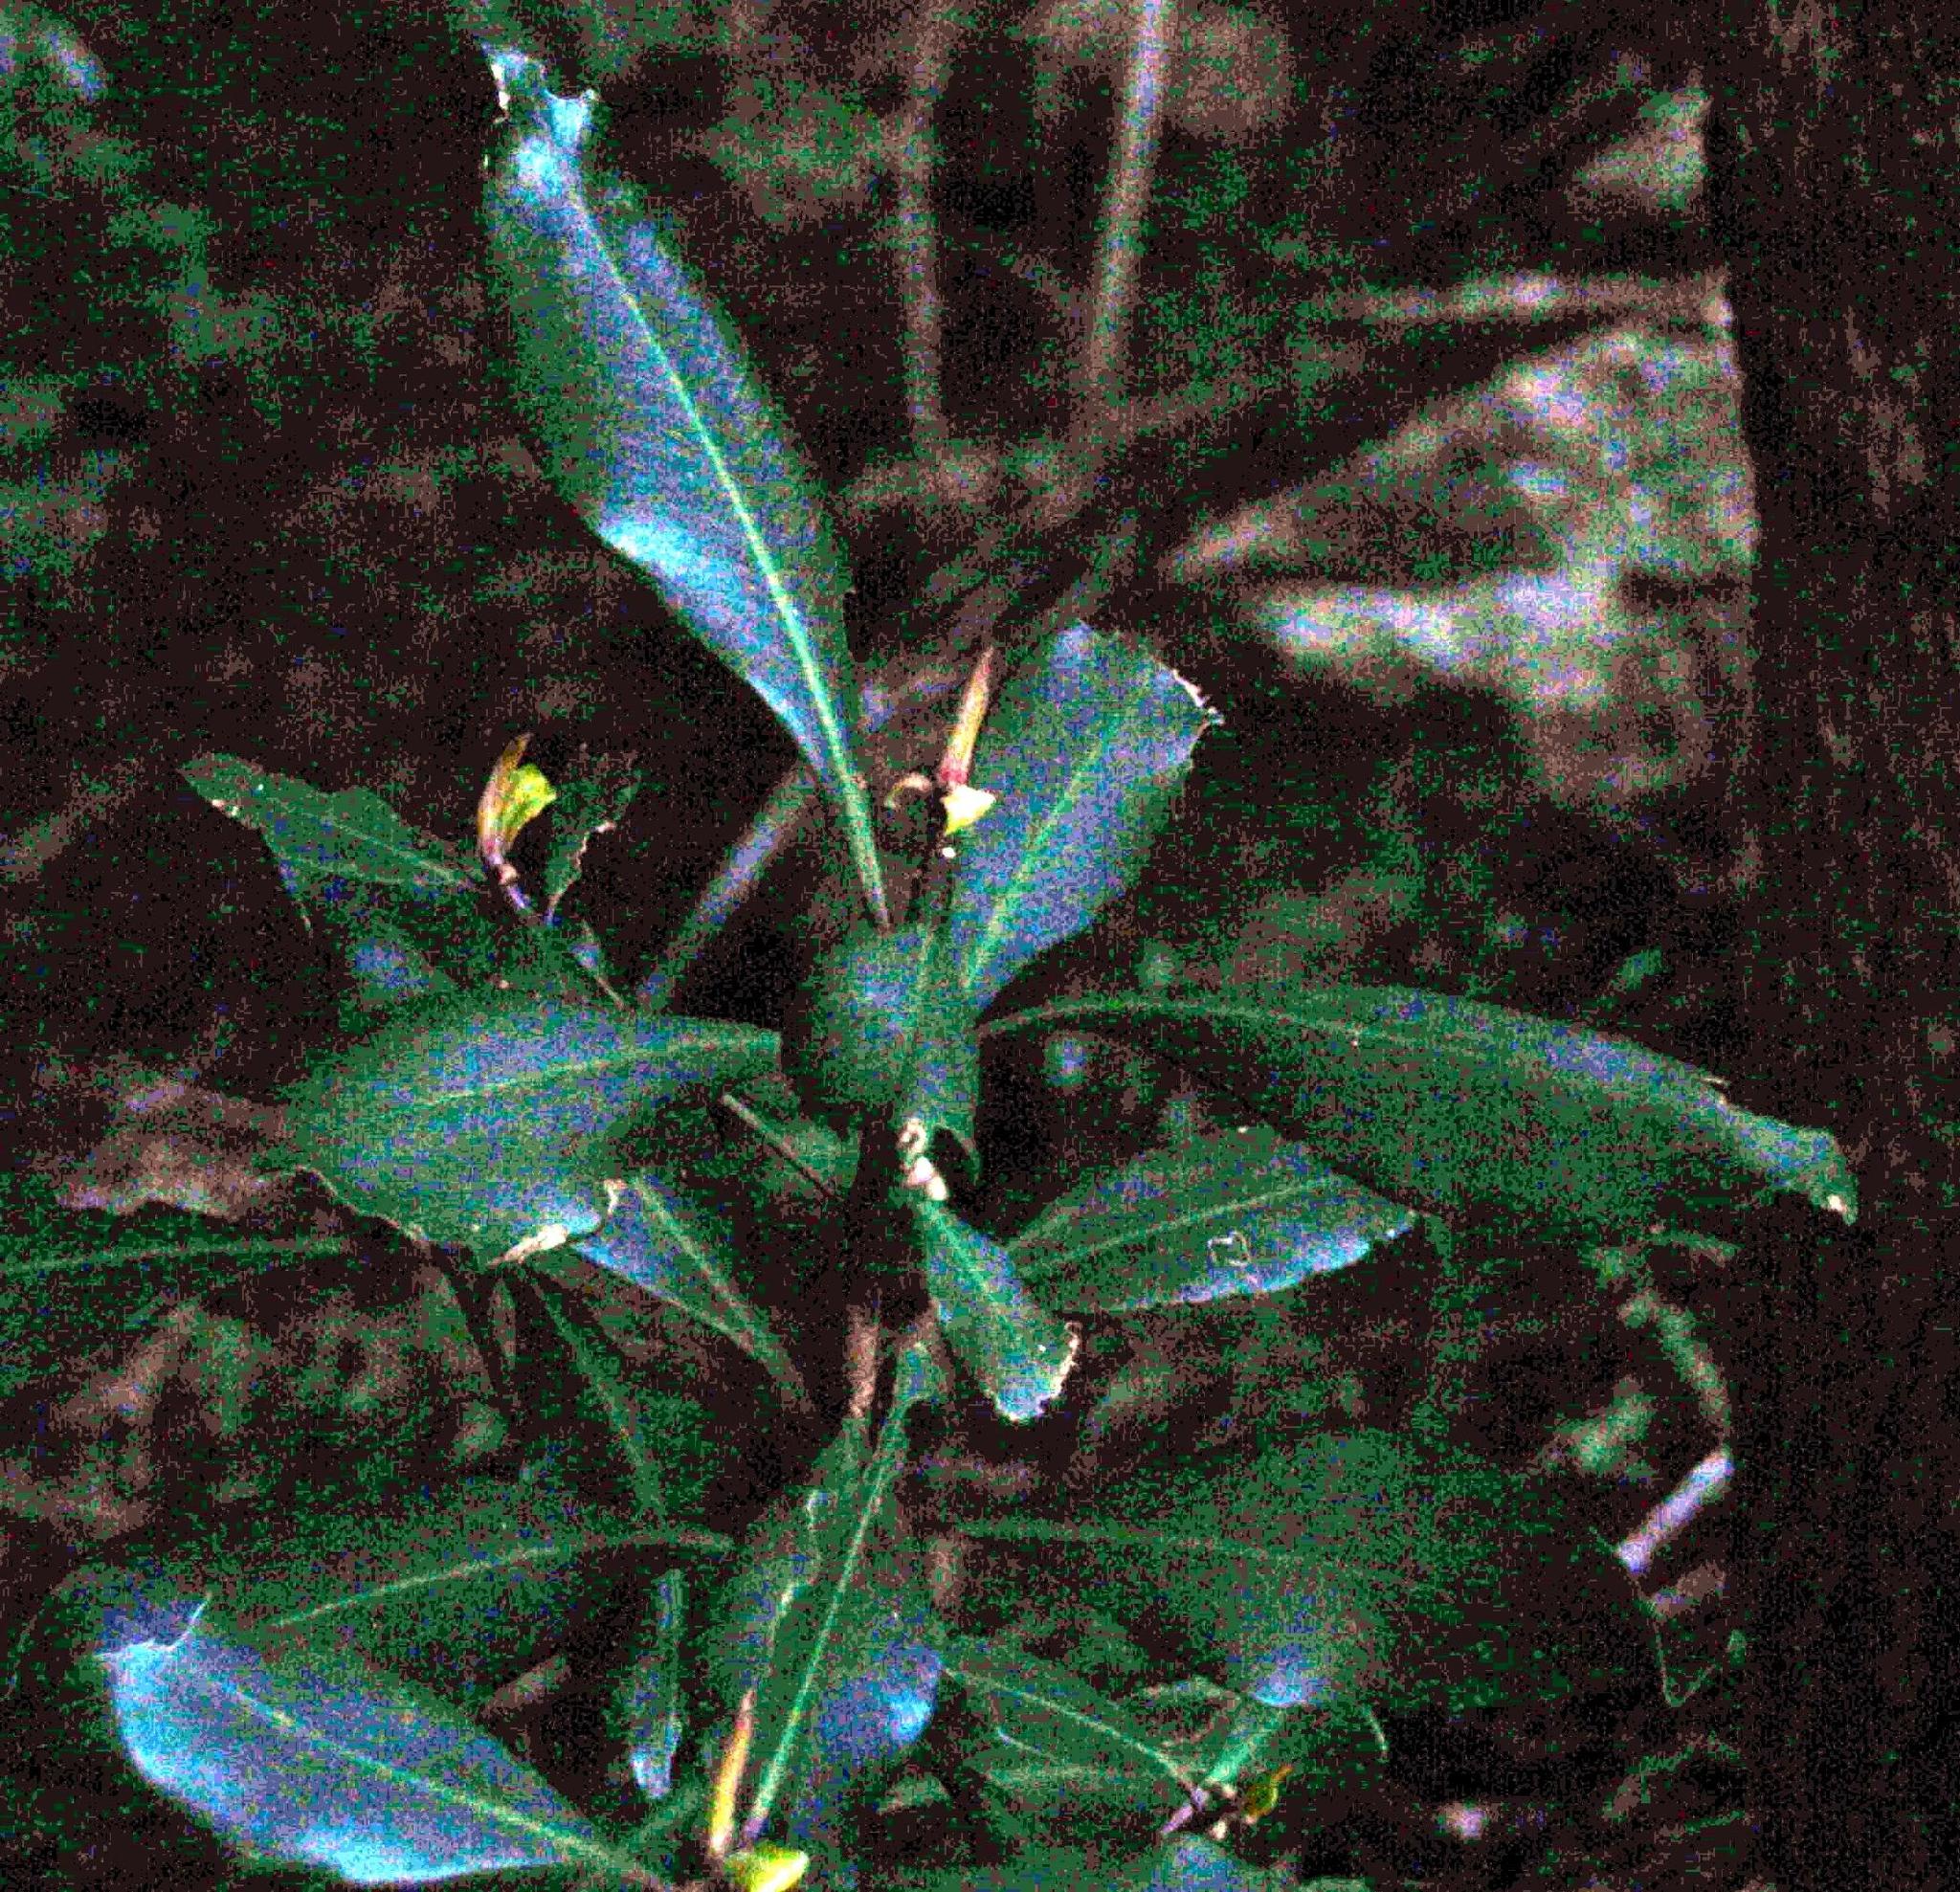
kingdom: Plantae
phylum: Tracheophyta
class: Magnoliopsida
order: Ericales
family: Primulaceae
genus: Myrsine
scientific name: Myrsine melanophloeos
